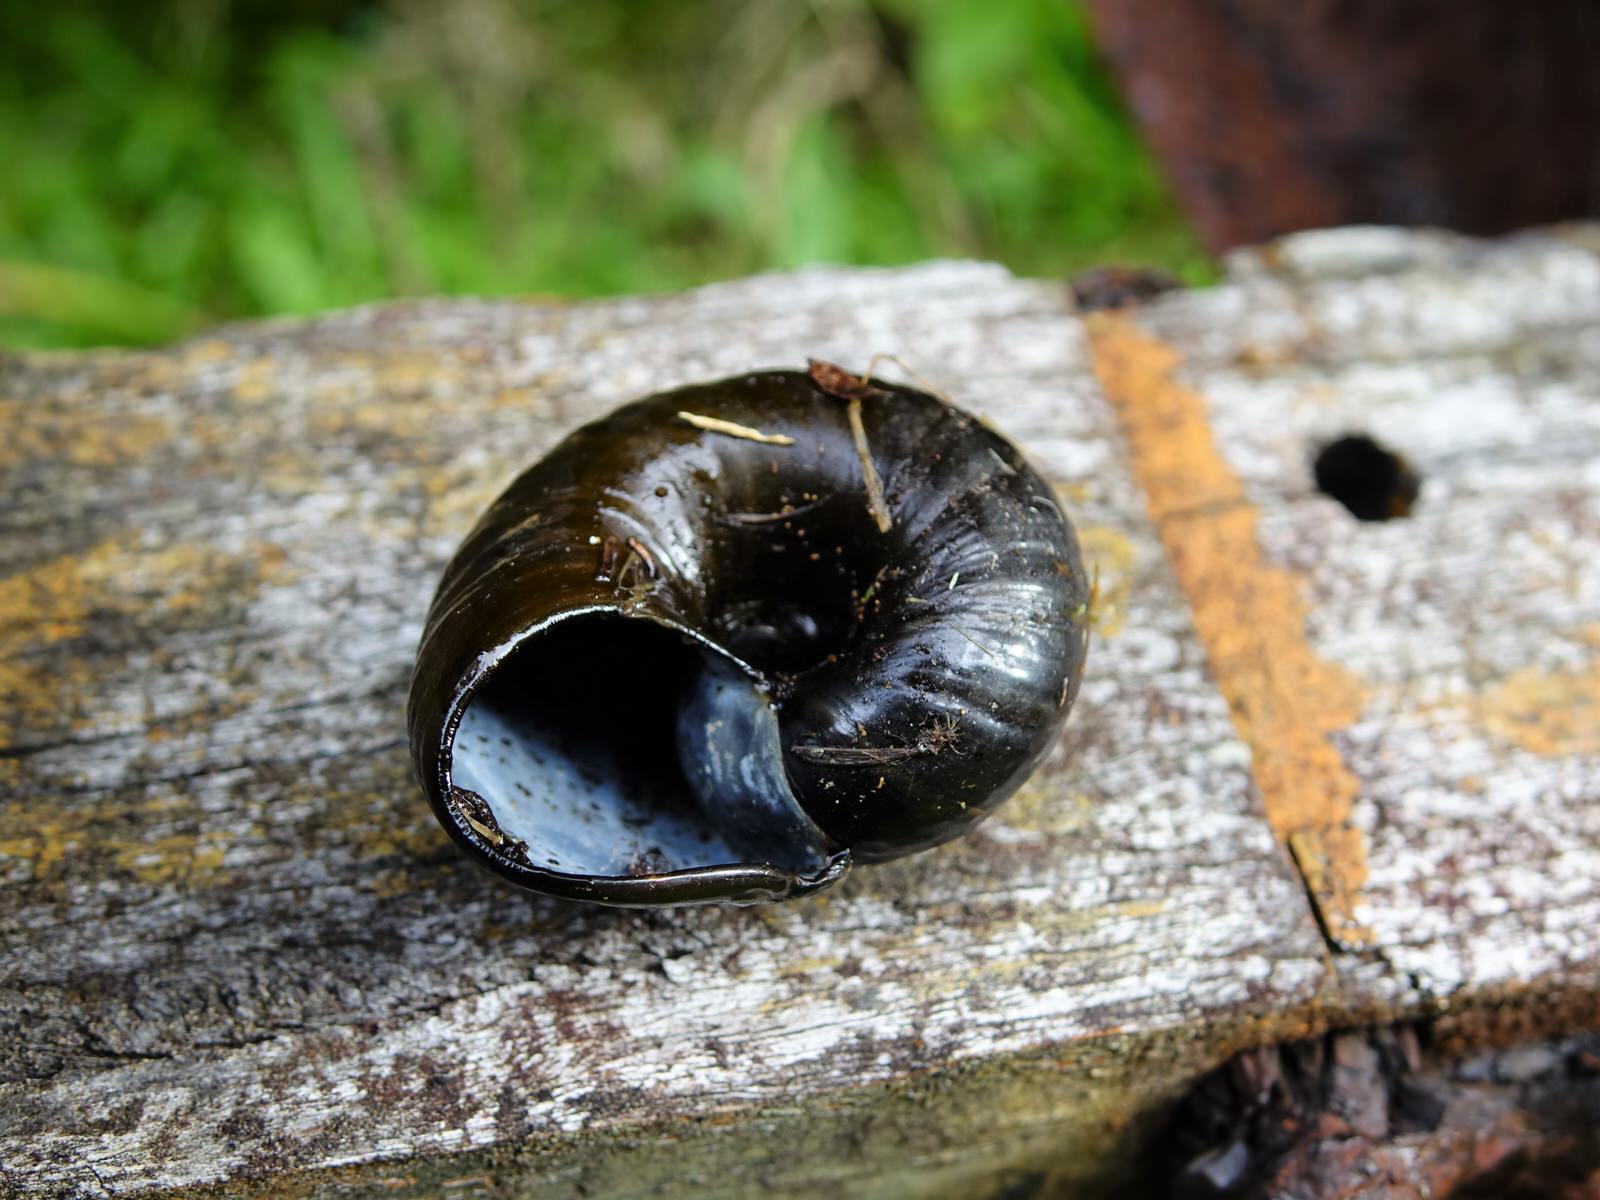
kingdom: Animalia
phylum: Mollusca
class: Gastropoda
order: Stylommatophora
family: Rhytididae
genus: Paryphanta
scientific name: Paryphanta busbyi
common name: Kauri snail
